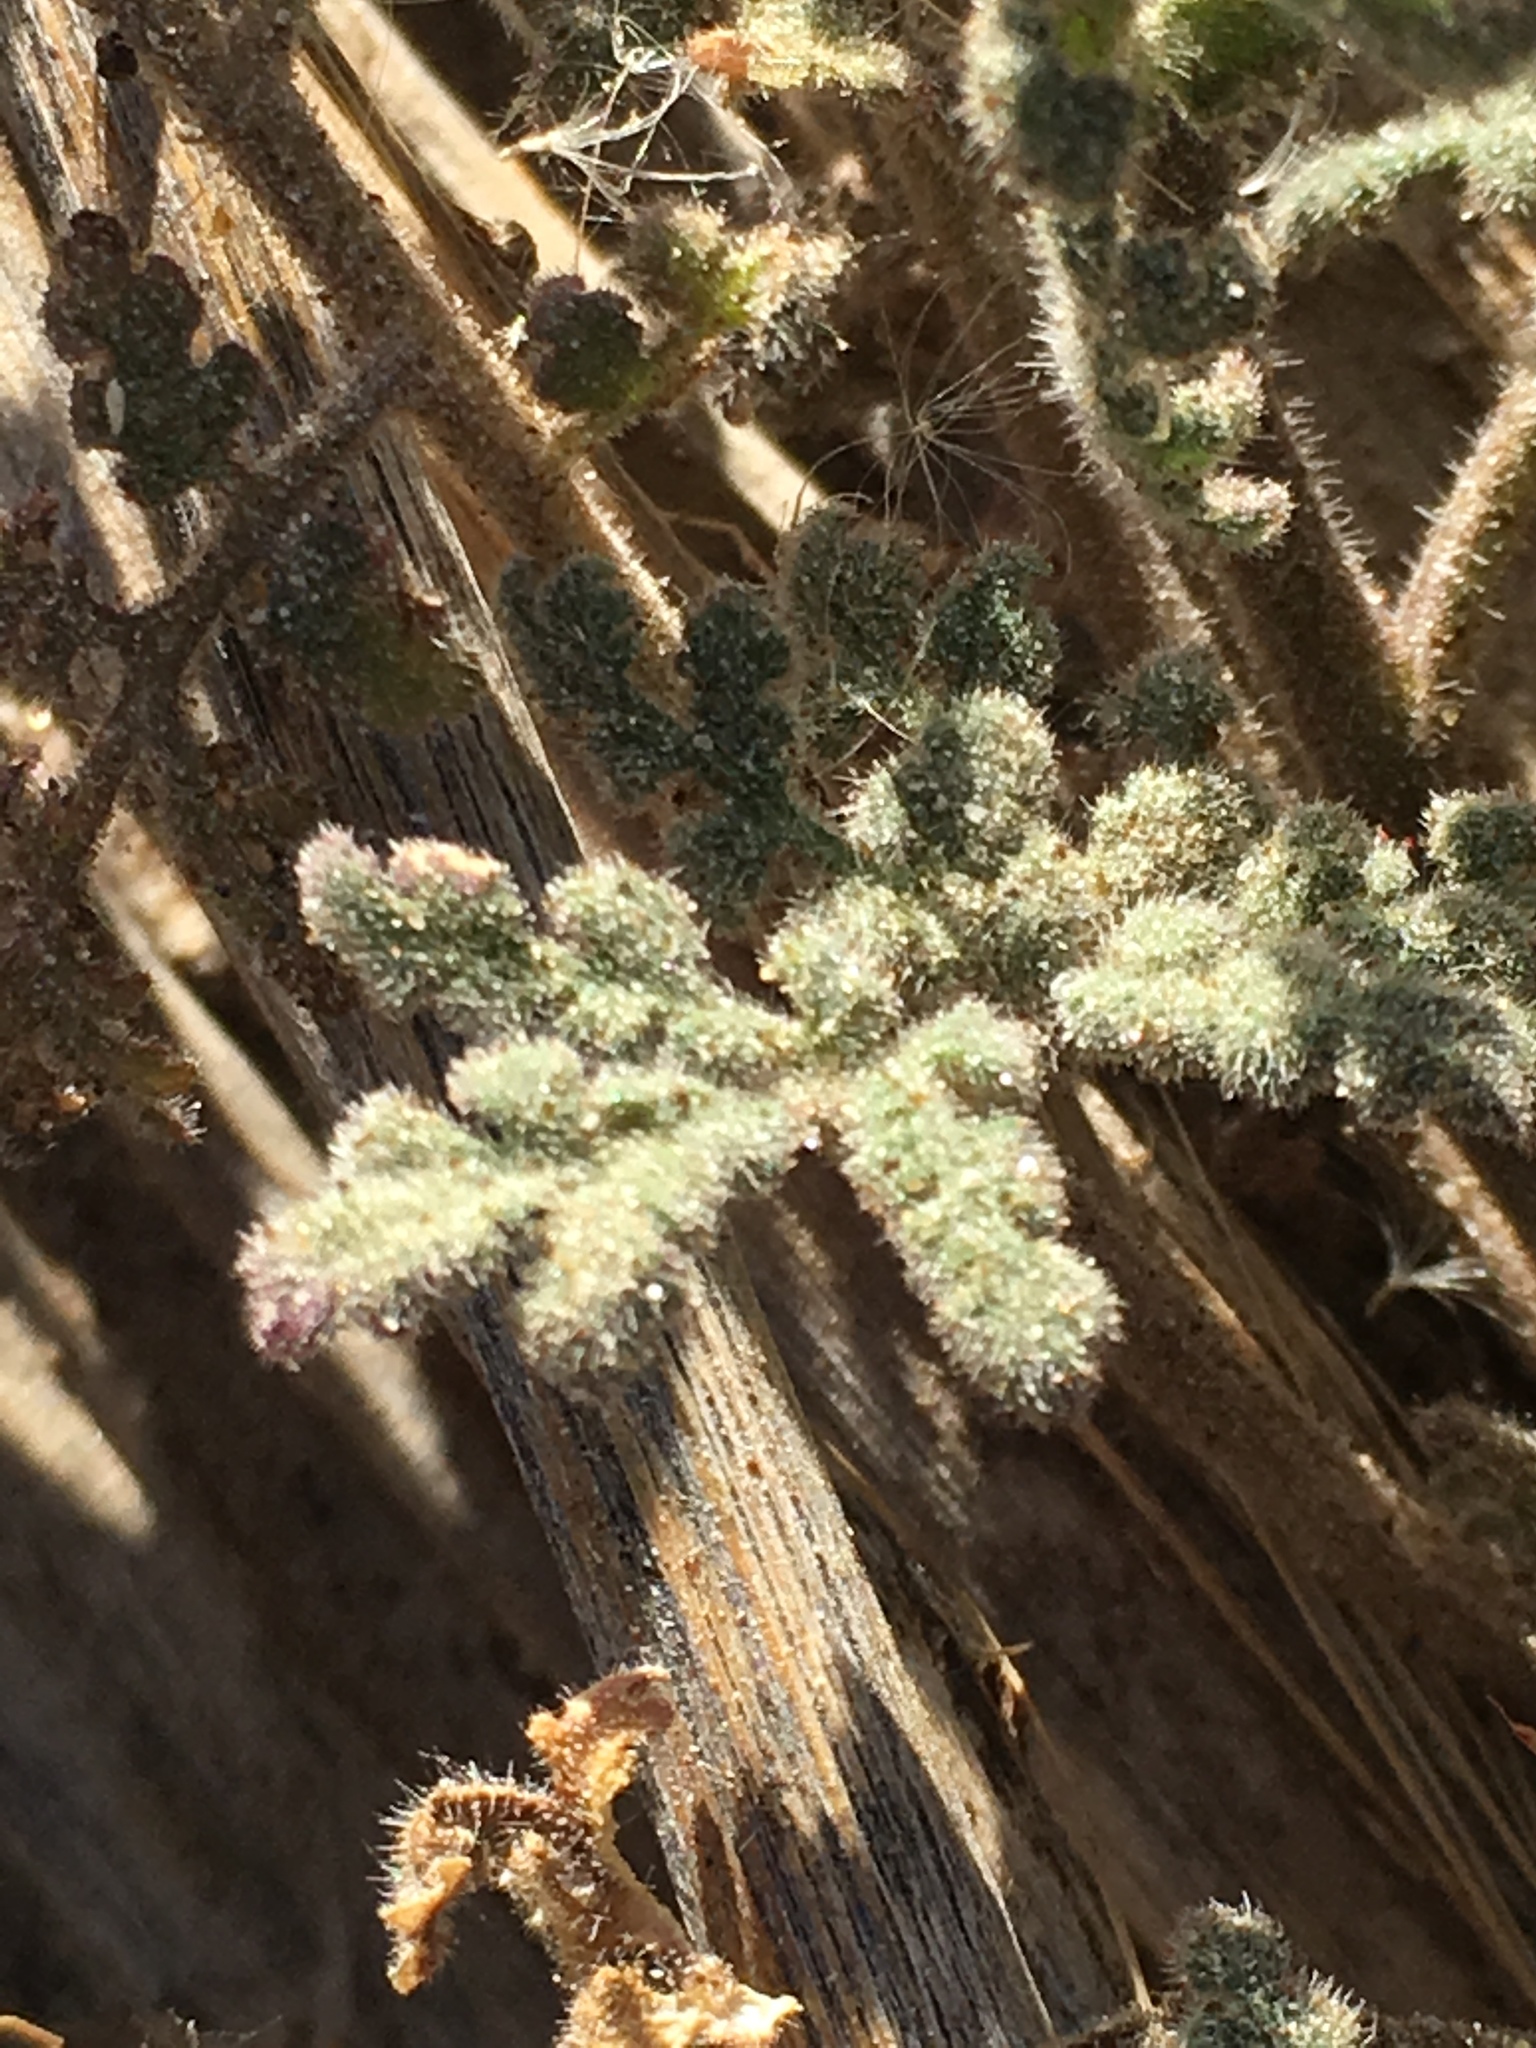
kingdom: Plantae
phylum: Tracheophyta
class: Magnoliopsida
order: Boraginales
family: Hydrophyllaceae
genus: Phacelia
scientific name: Phacelia distans
